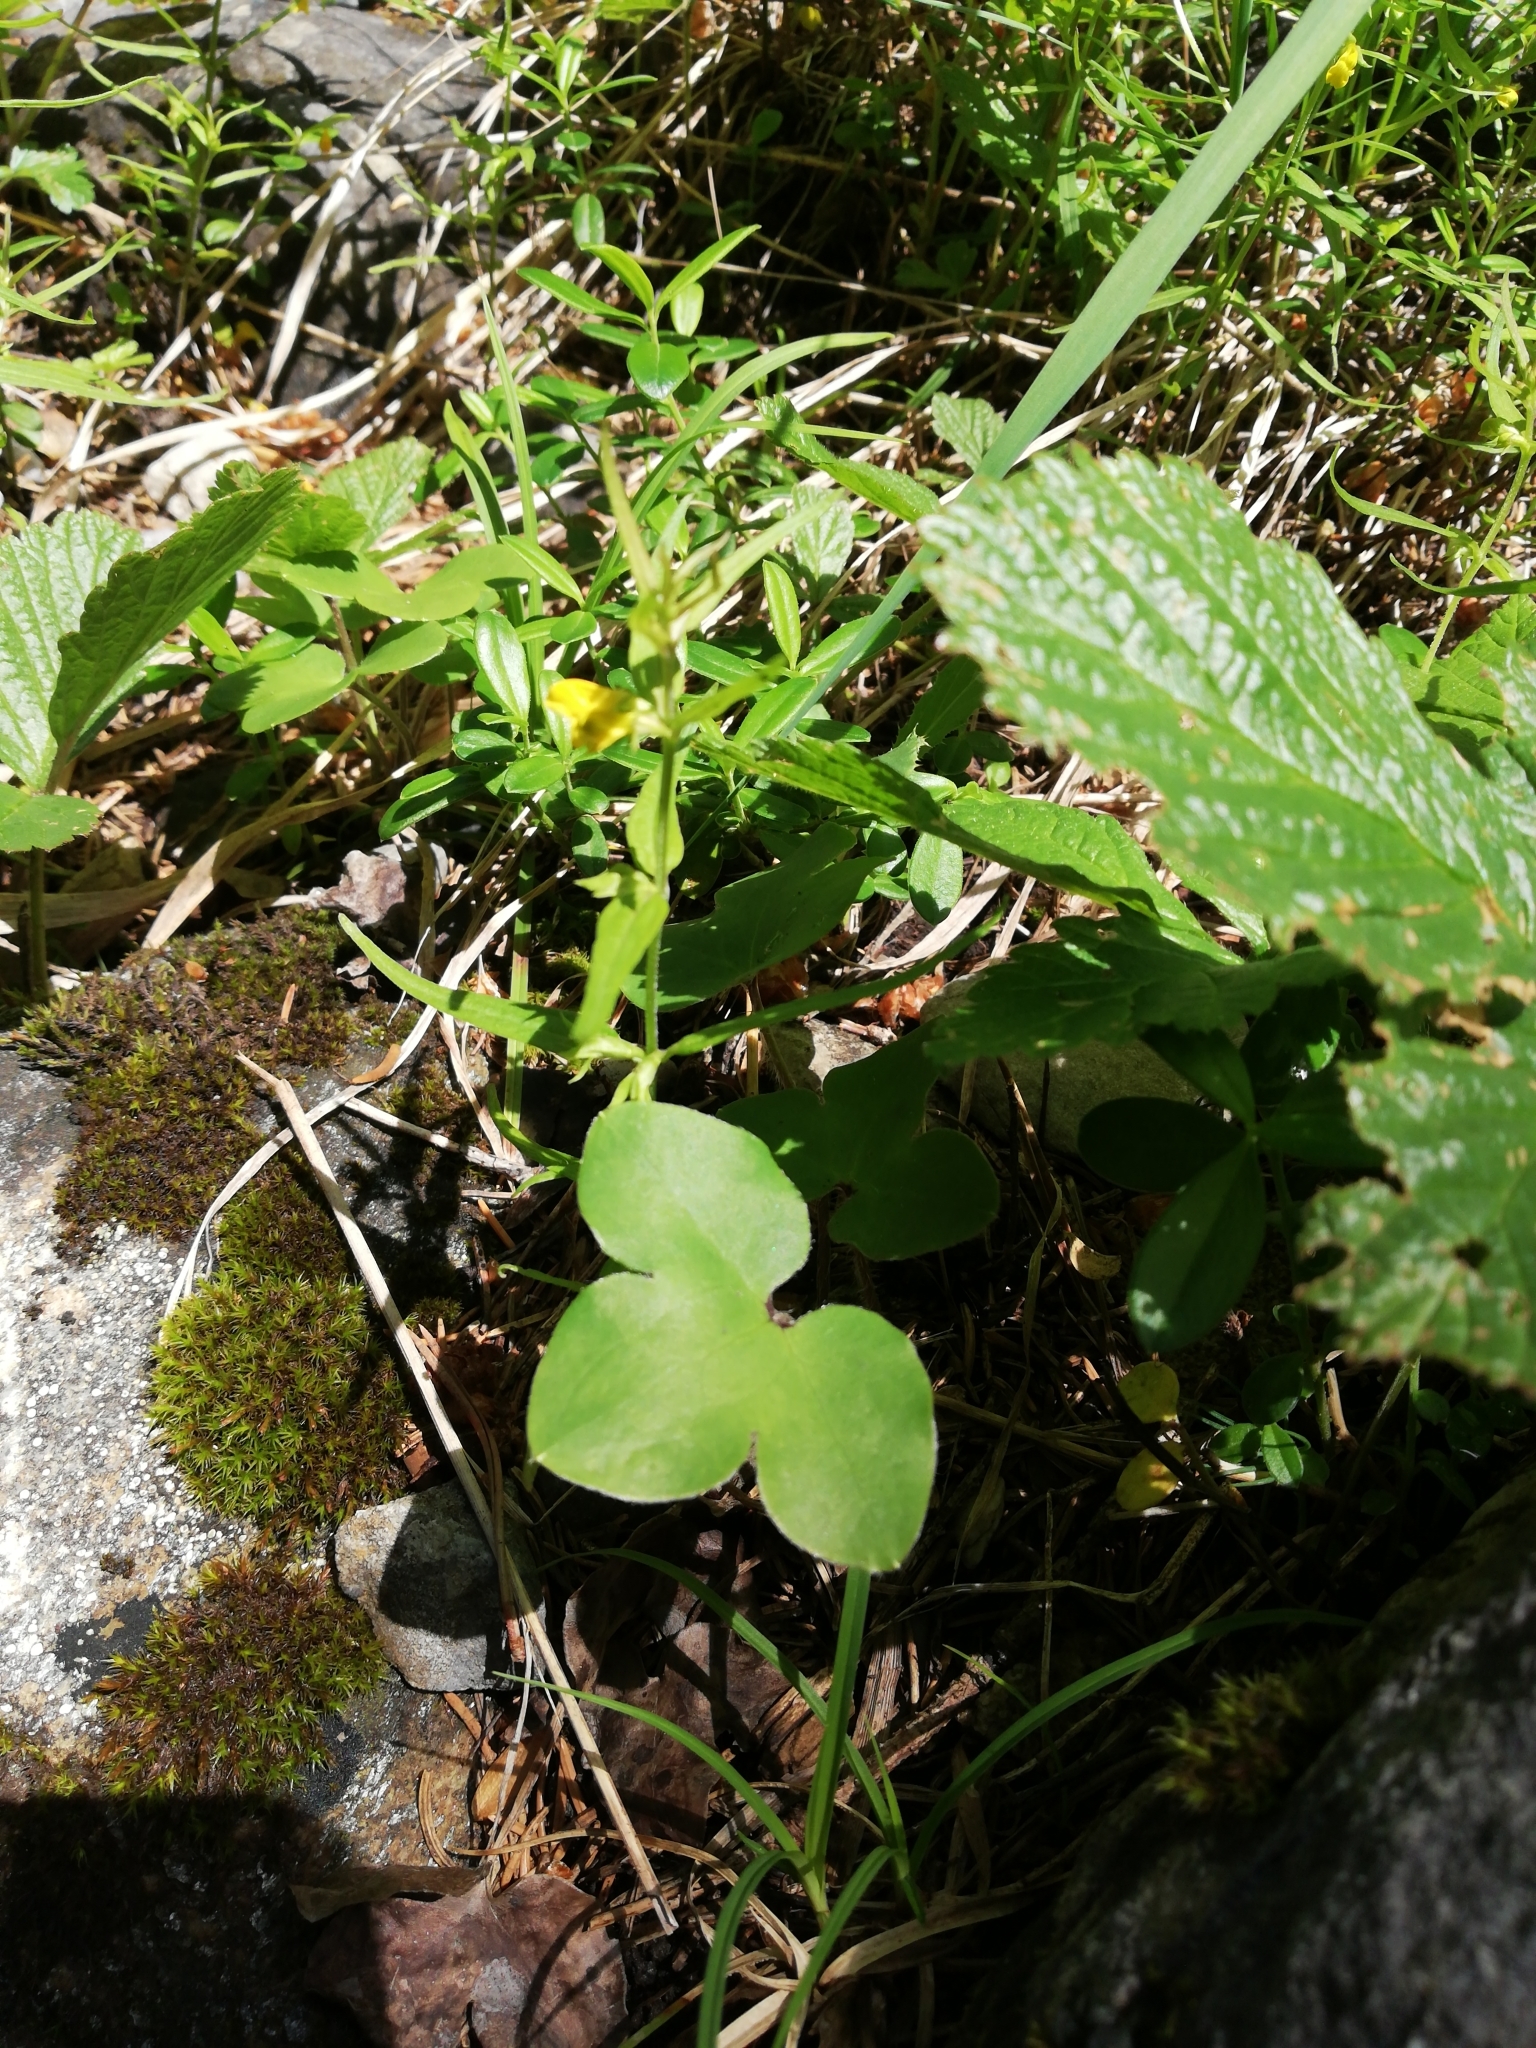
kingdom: Plantae
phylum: Tracheophyta
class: Magnoliopsida
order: Ranunculales
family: Ranunculaceae
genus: Hepatica
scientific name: Hepatica nobilis
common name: Liverleaf
